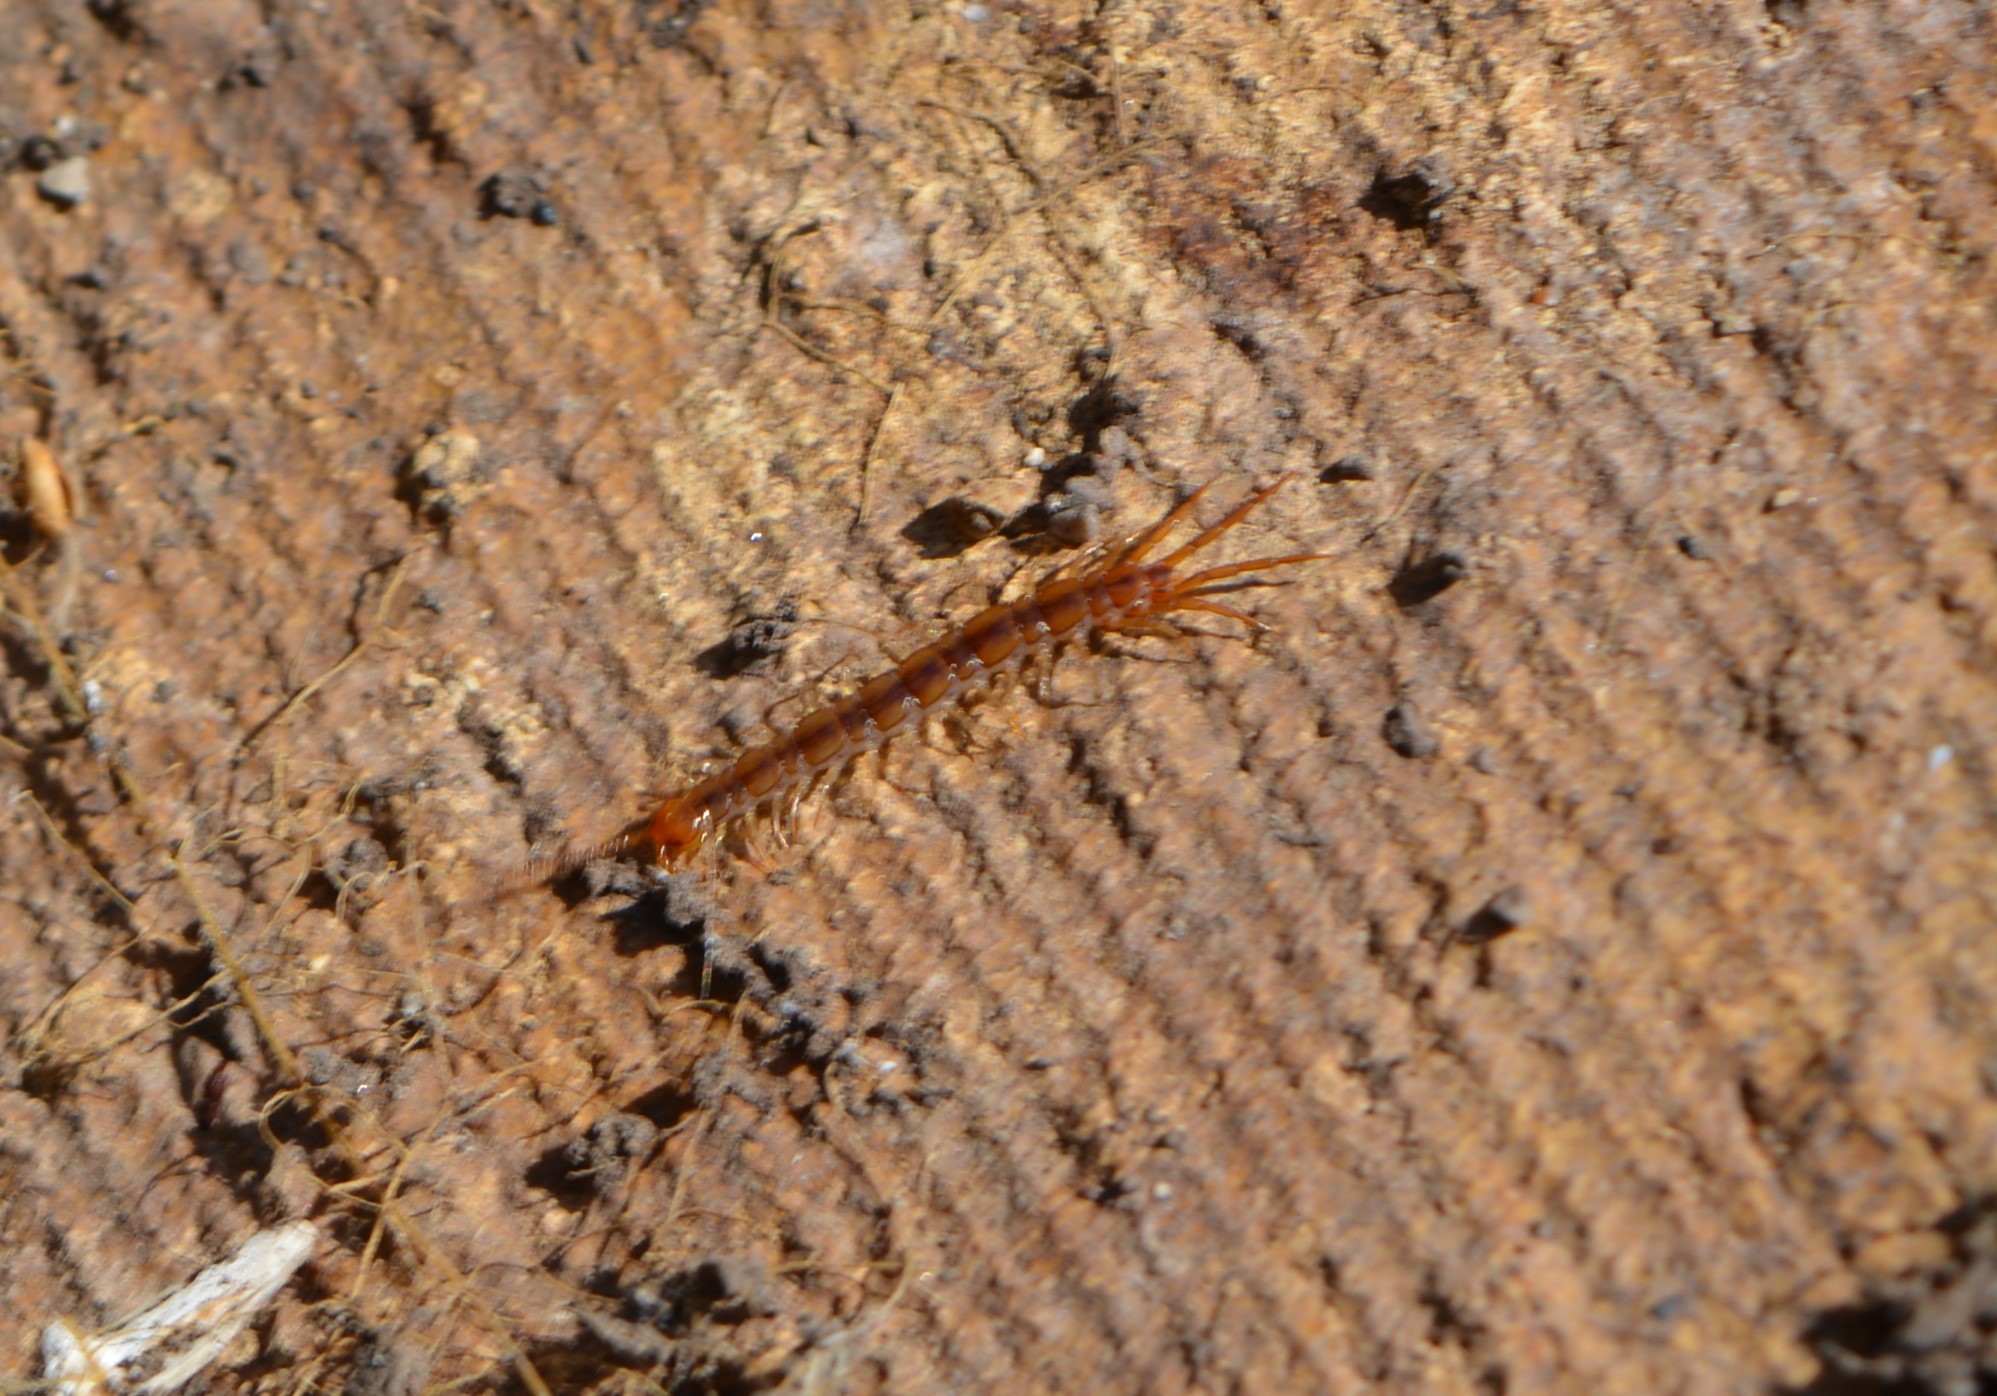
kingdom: Animalia
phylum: Arthropoda
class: Chilopoda
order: Lithobiomorpha
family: Lithobiidae
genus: Lithobius
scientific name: Lithobius melanops
